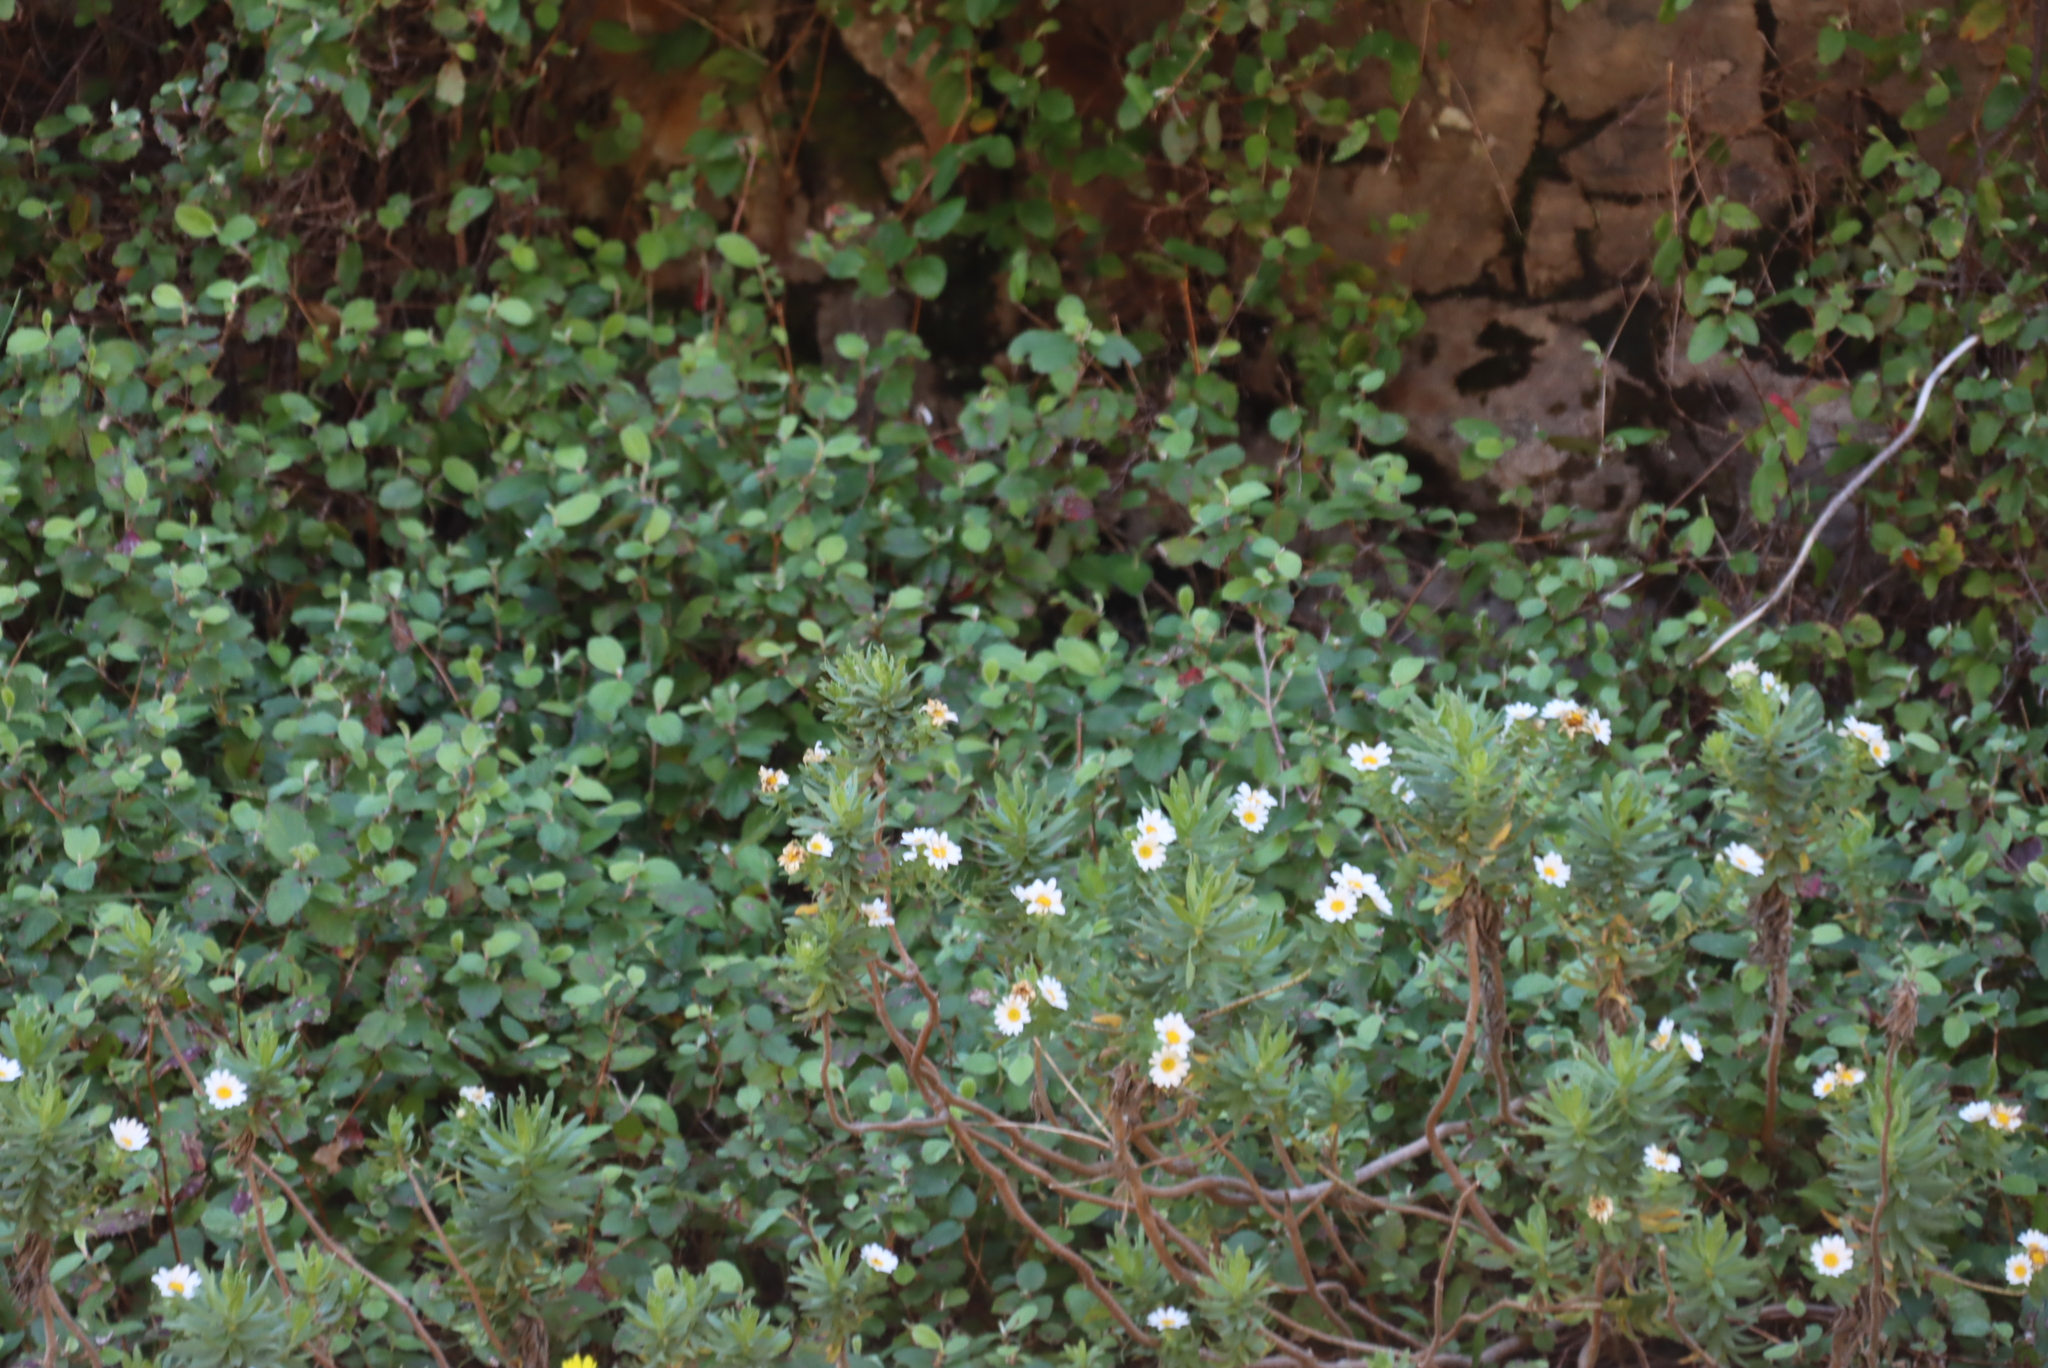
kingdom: Plantae
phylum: Tracheophyta
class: Magnoliopsida
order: Rosales
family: Rosaceae
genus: Cliffortia
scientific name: Cliffortia odorata
